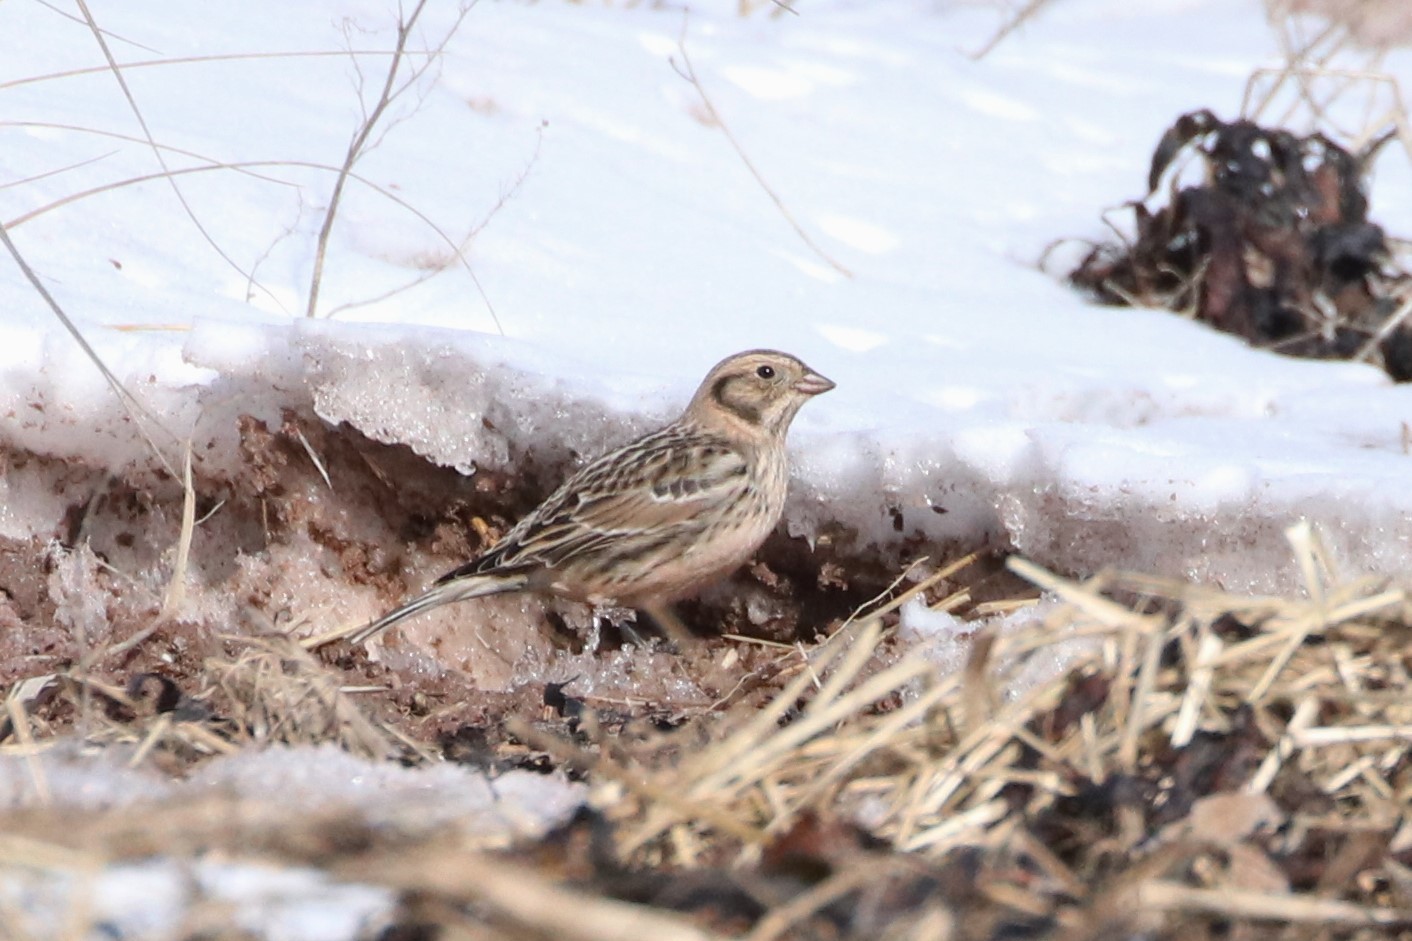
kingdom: Animalia
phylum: Chordata
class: Aves
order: Passeriformes
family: Calcariidae
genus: Calcarius
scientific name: Calcarius lapponicus
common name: Lapland longspur
